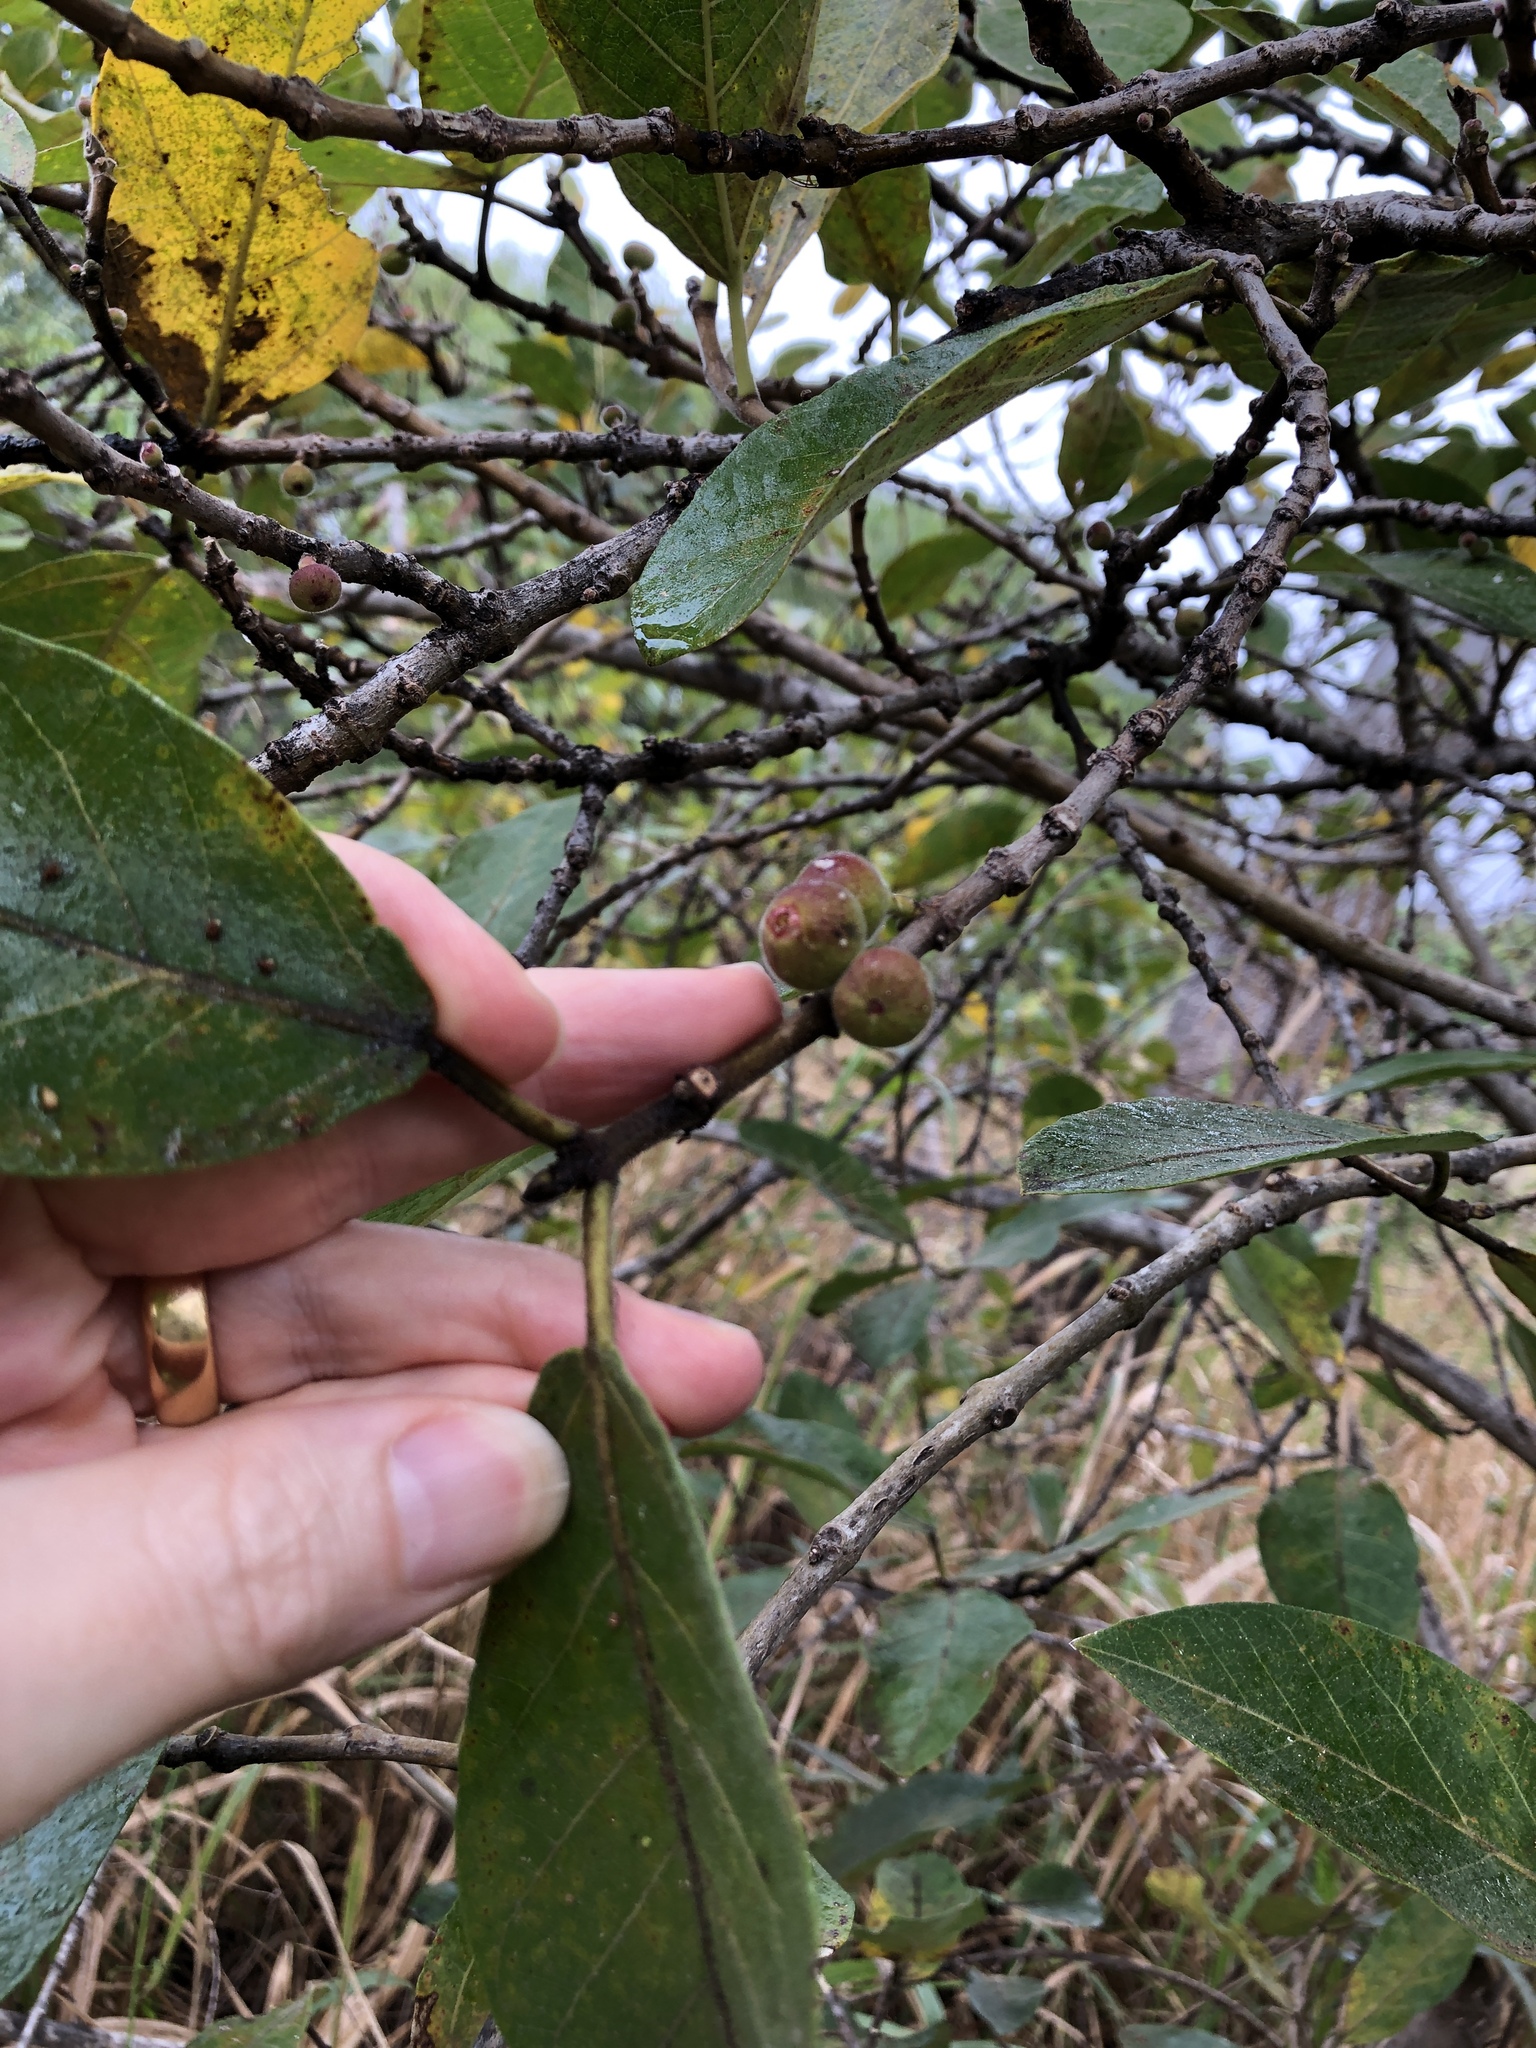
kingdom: Plantae
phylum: Tracheophyta
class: Magnoliopsida
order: Rosales
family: Moraceae
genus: Ficus
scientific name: Ficus opposita
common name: Figwood
